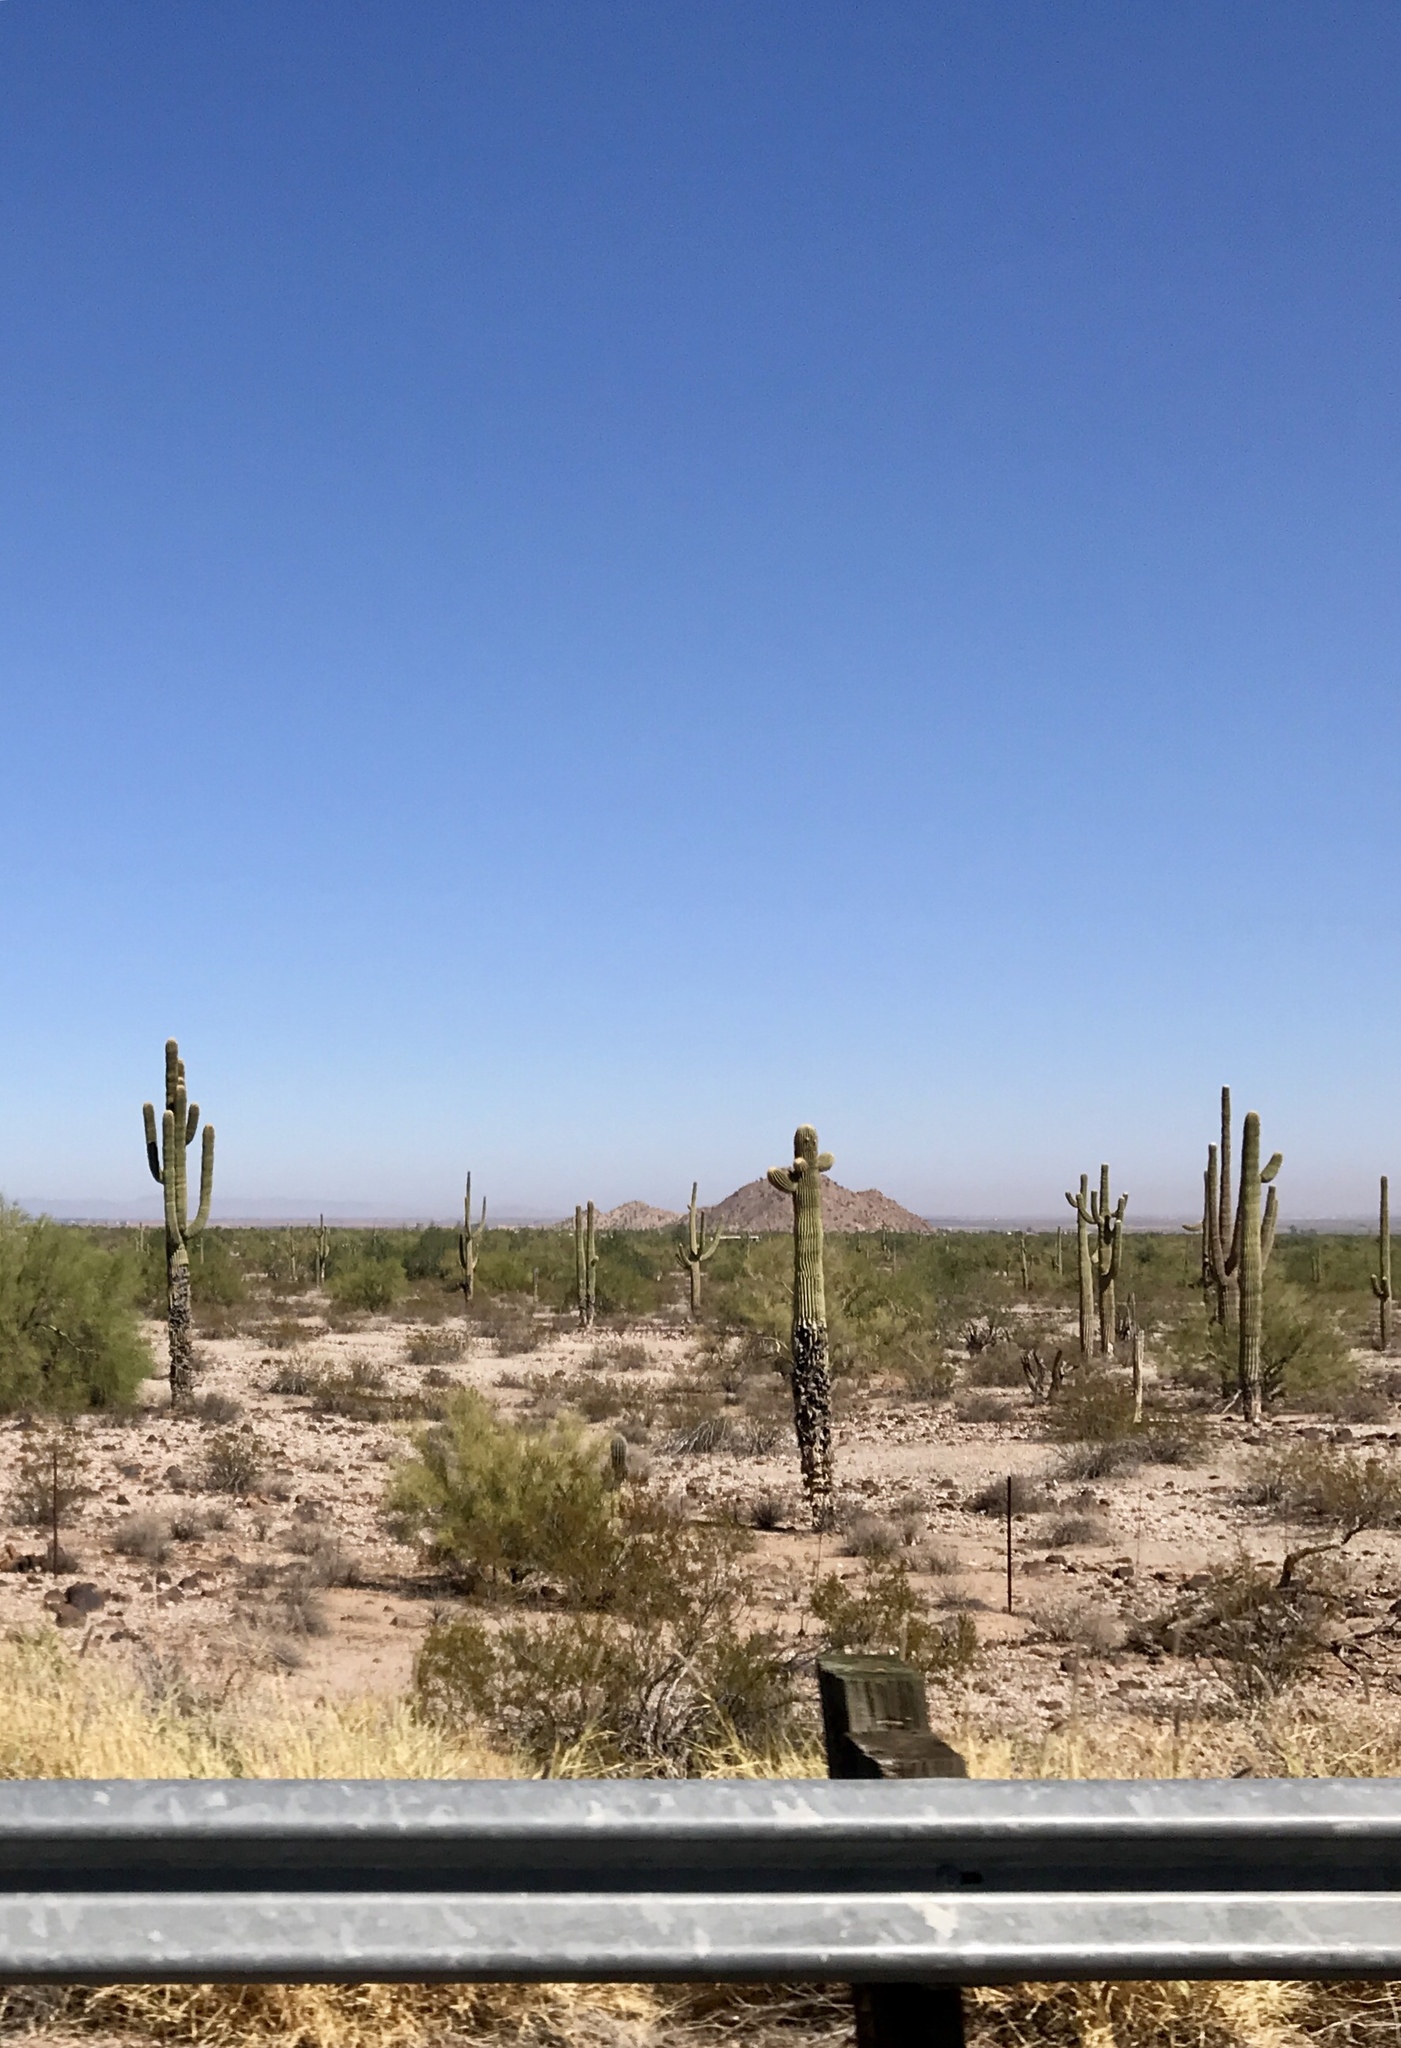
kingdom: Plantae
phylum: Tracheophyta
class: Magnoliopsida
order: Caryophyllales
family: Cactaceae
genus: Carnegiea
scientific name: Carnegiea gigantea
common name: Saguaro
